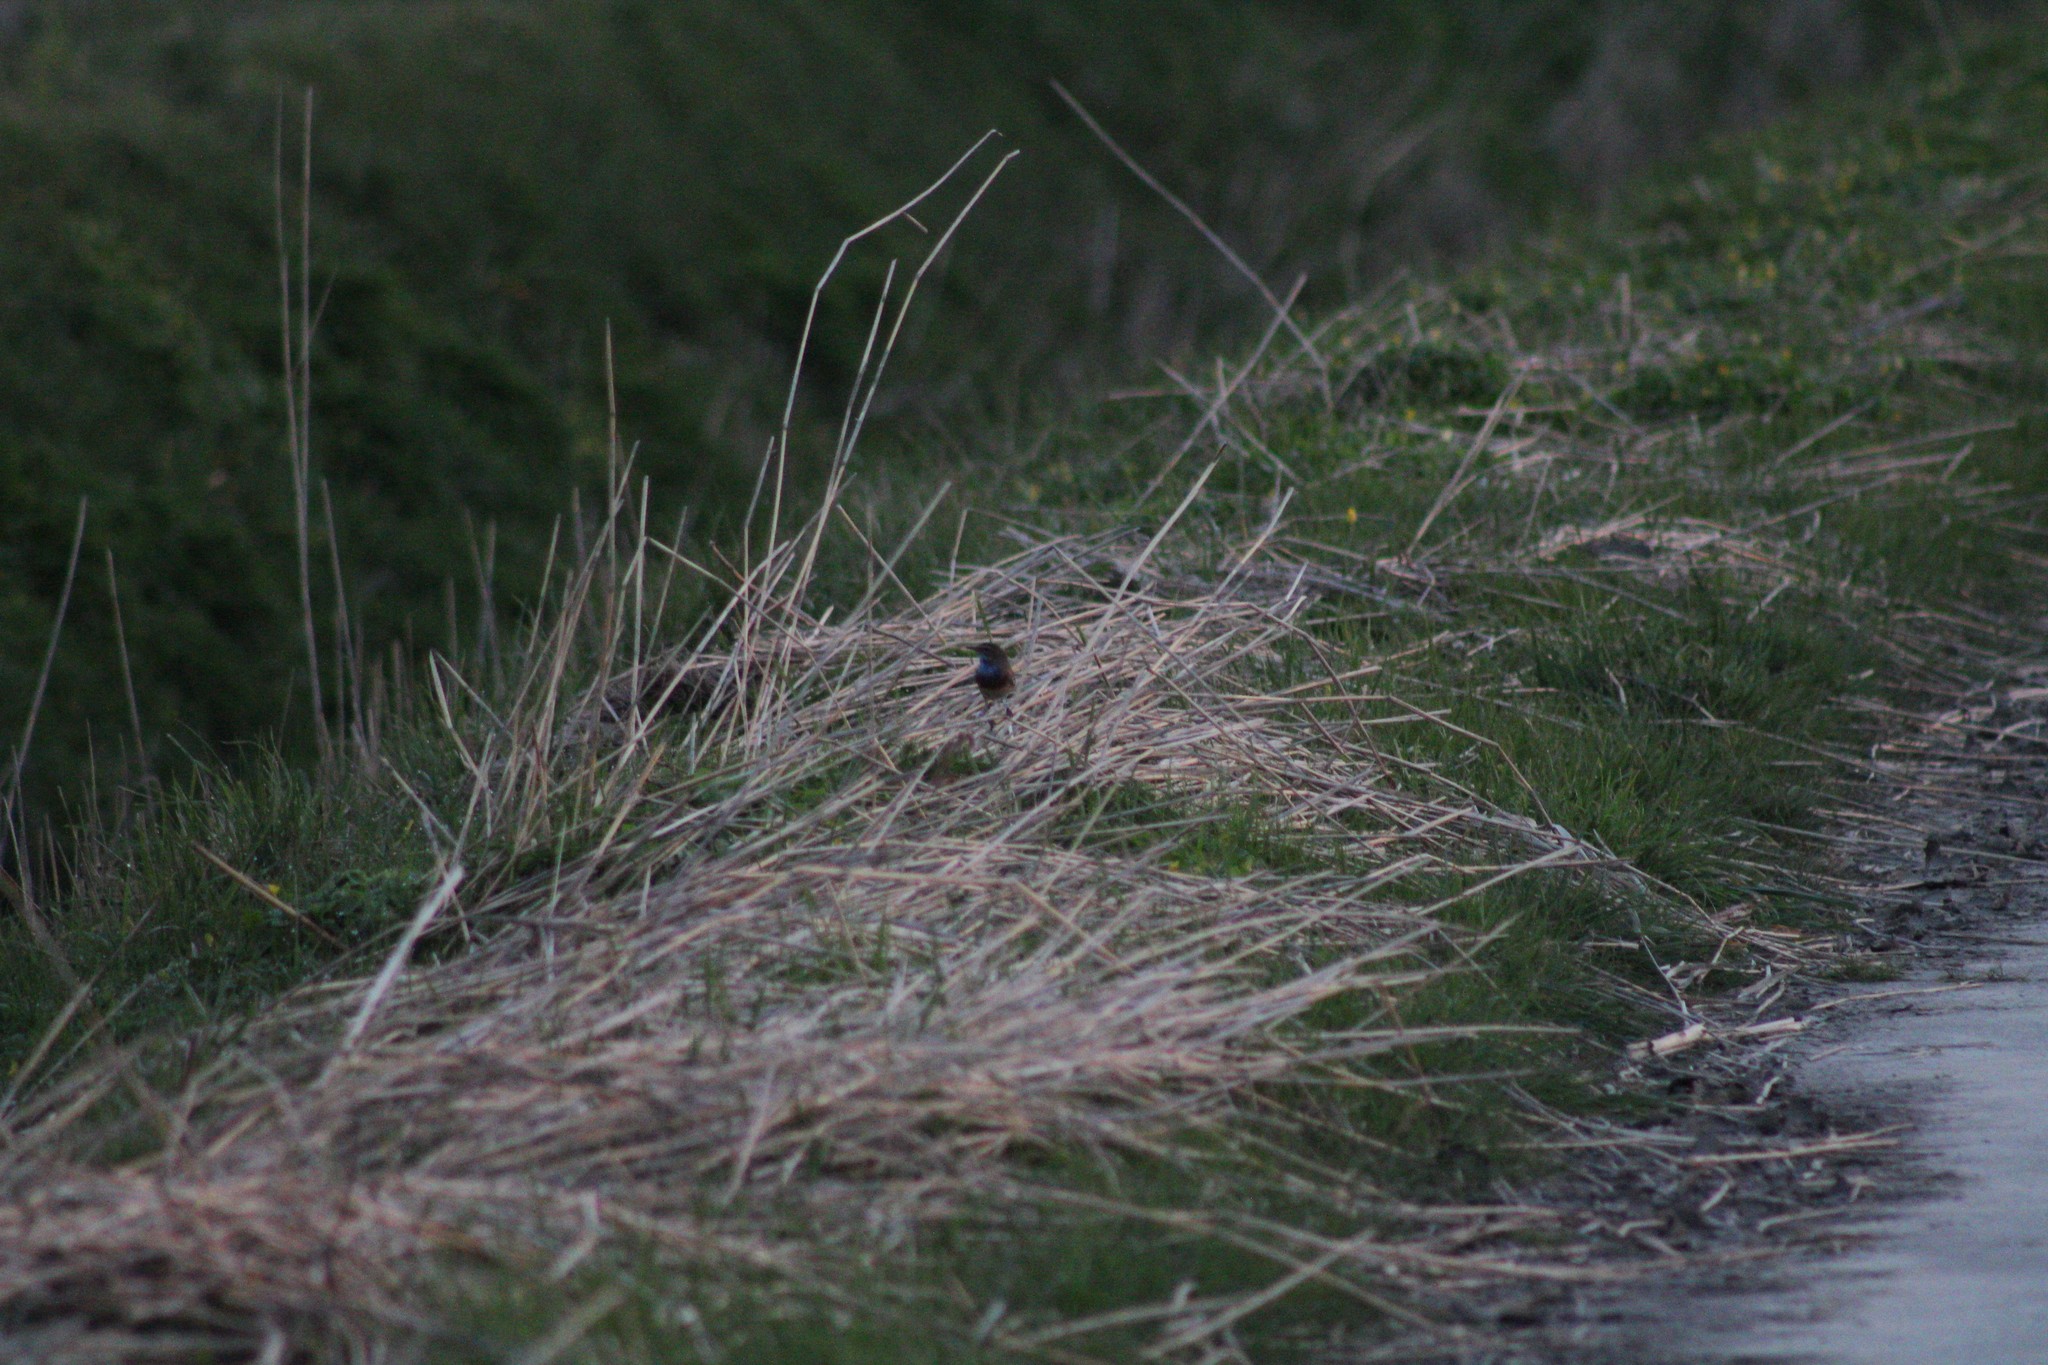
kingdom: Animalia
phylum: Chordata
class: Aves
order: Passeriformes
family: Muscicapidae
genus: Luscinia
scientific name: Luscinia svecica
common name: Bluethroat
